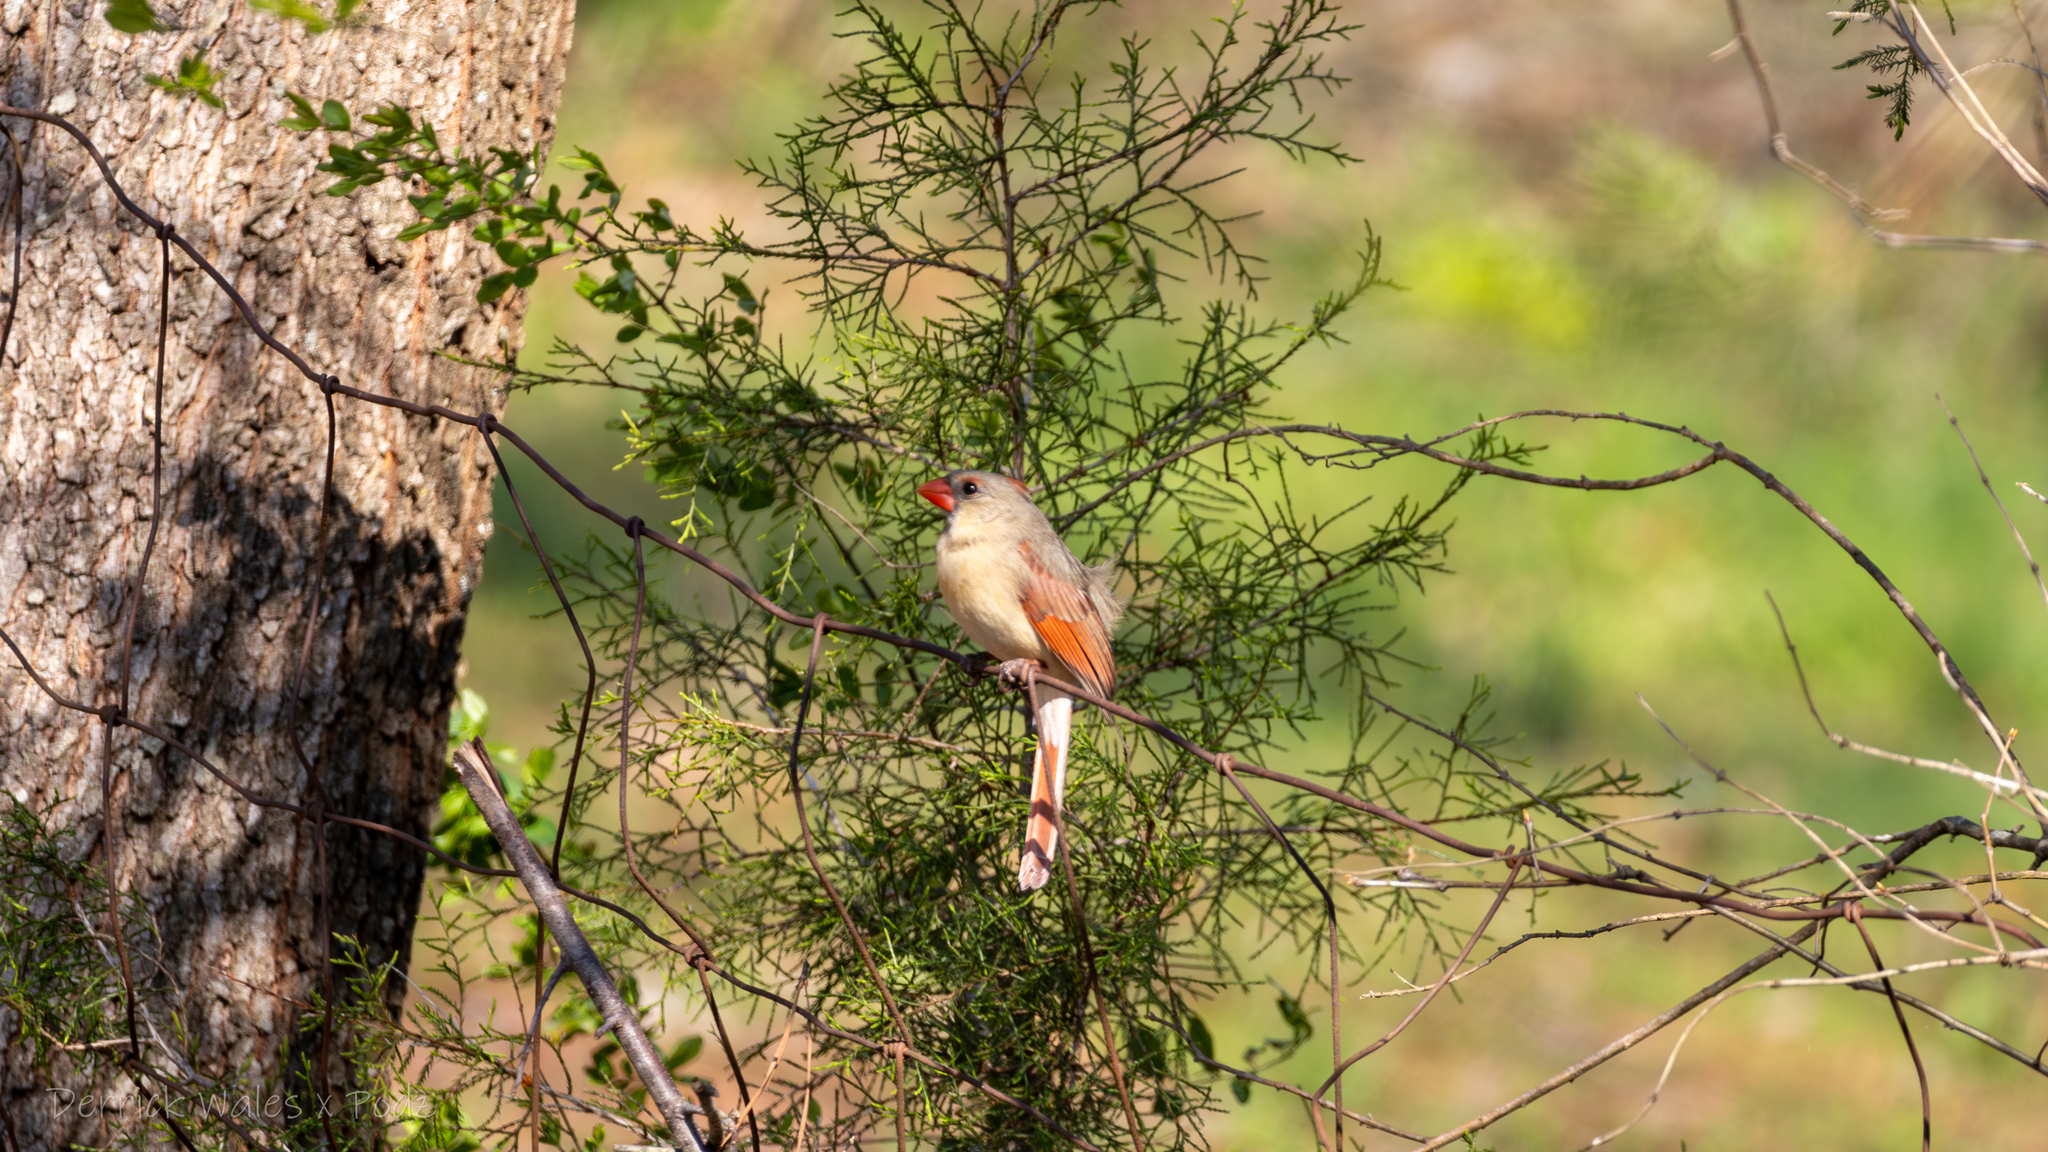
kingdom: Animalia
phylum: Chordata
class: Aves
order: Passeriformes
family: Cardinalidae
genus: Cardinalis
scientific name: Cardinalis cardinalis
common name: Northern cardinal
